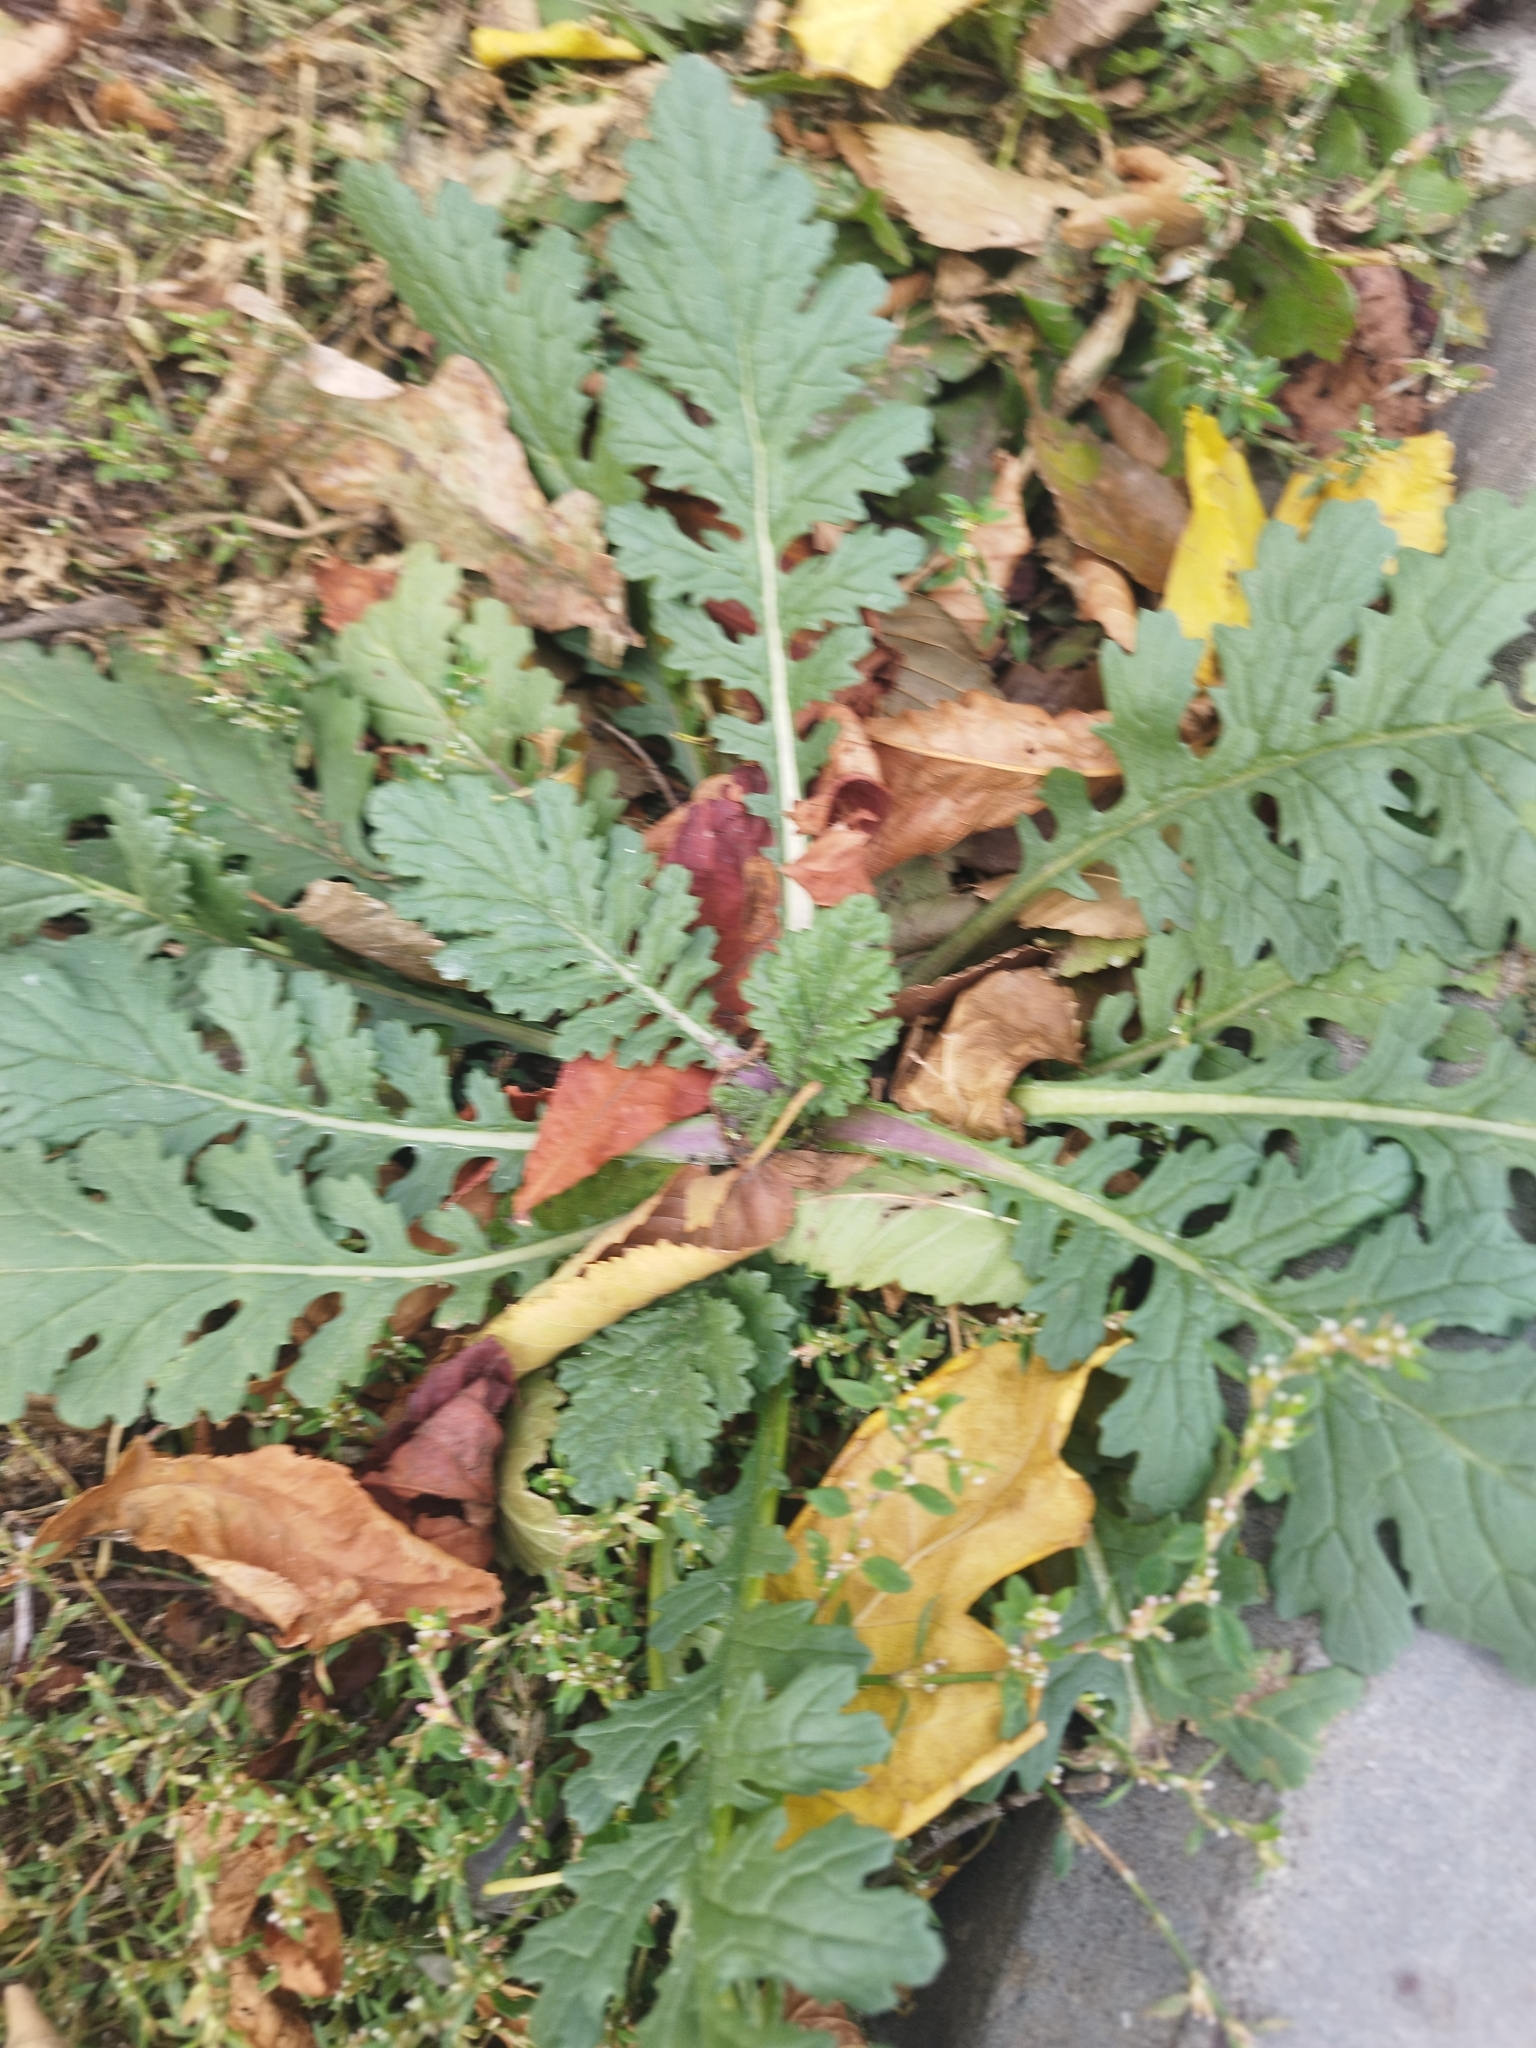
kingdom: Plantae
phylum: Tracheophyta
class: Magnoliopsida
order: Asterales
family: Asteraceae
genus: Jacobaea
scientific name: Jacobaea vulgaris
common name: Stinking willie
